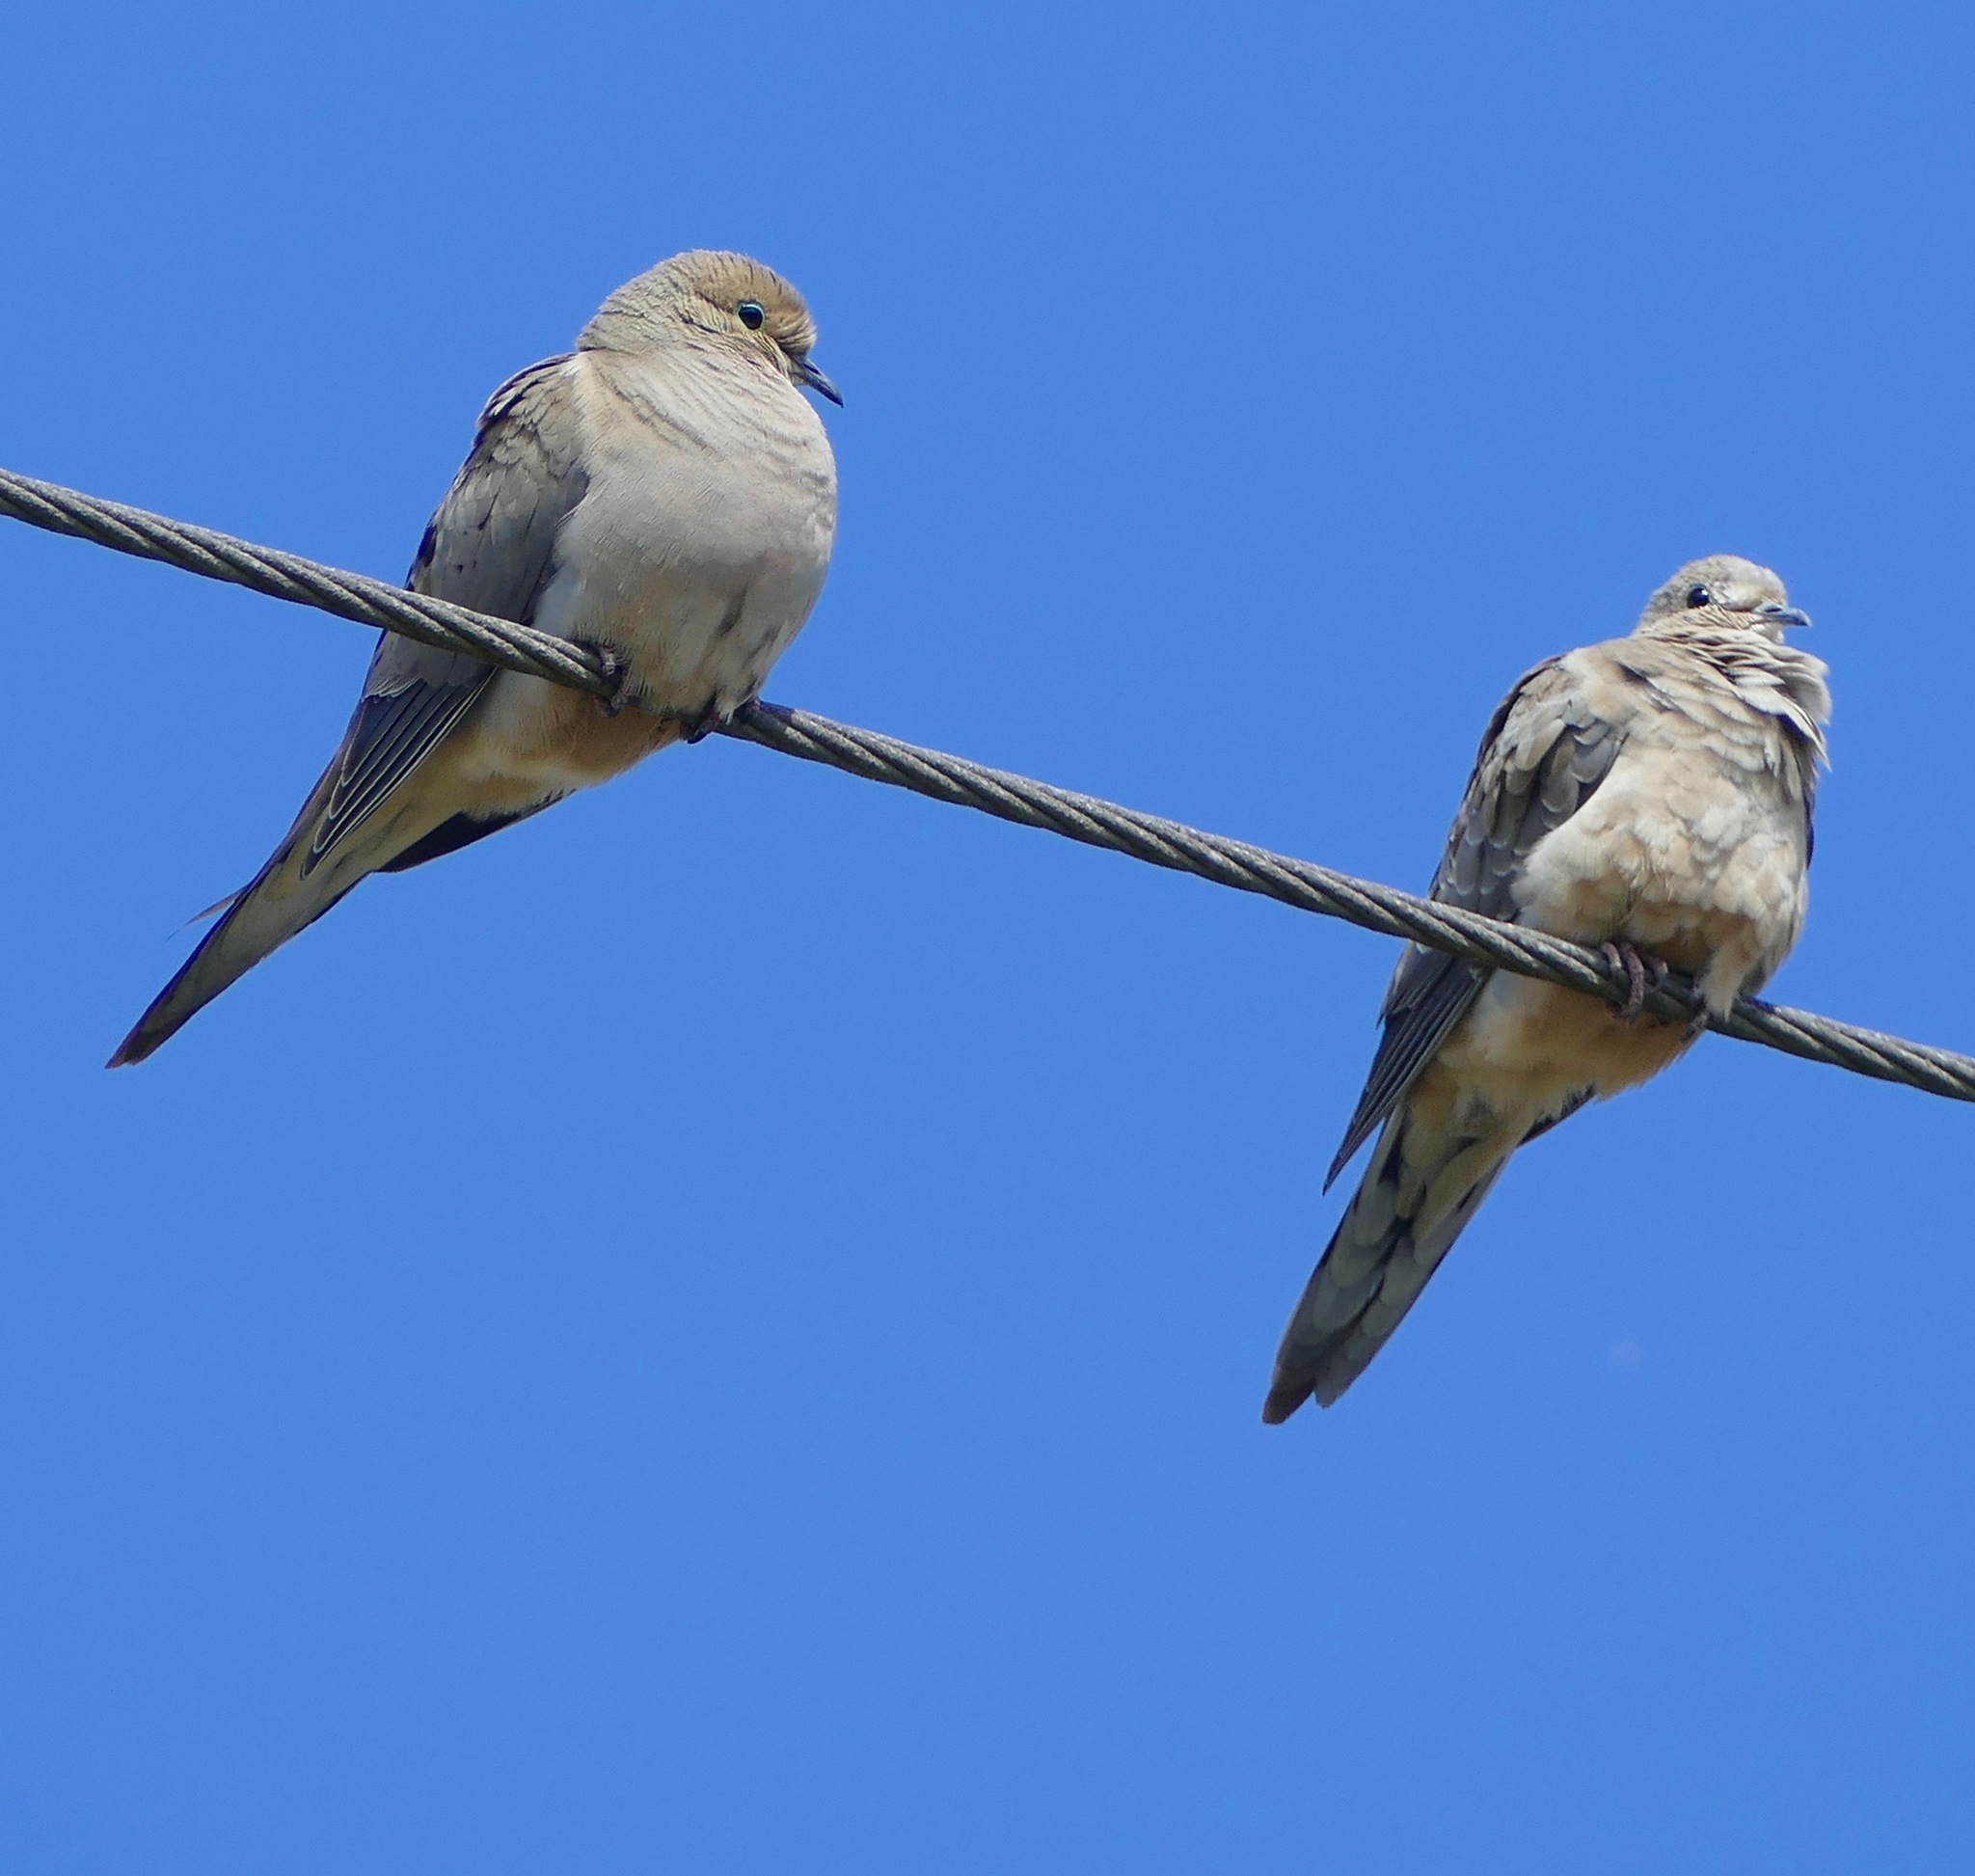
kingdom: Animalia
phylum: Chordata
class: Aves
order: Columbiformes
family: Columbidae
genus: Zenaida
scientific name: Zenaida macroura
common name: Mourning dove
